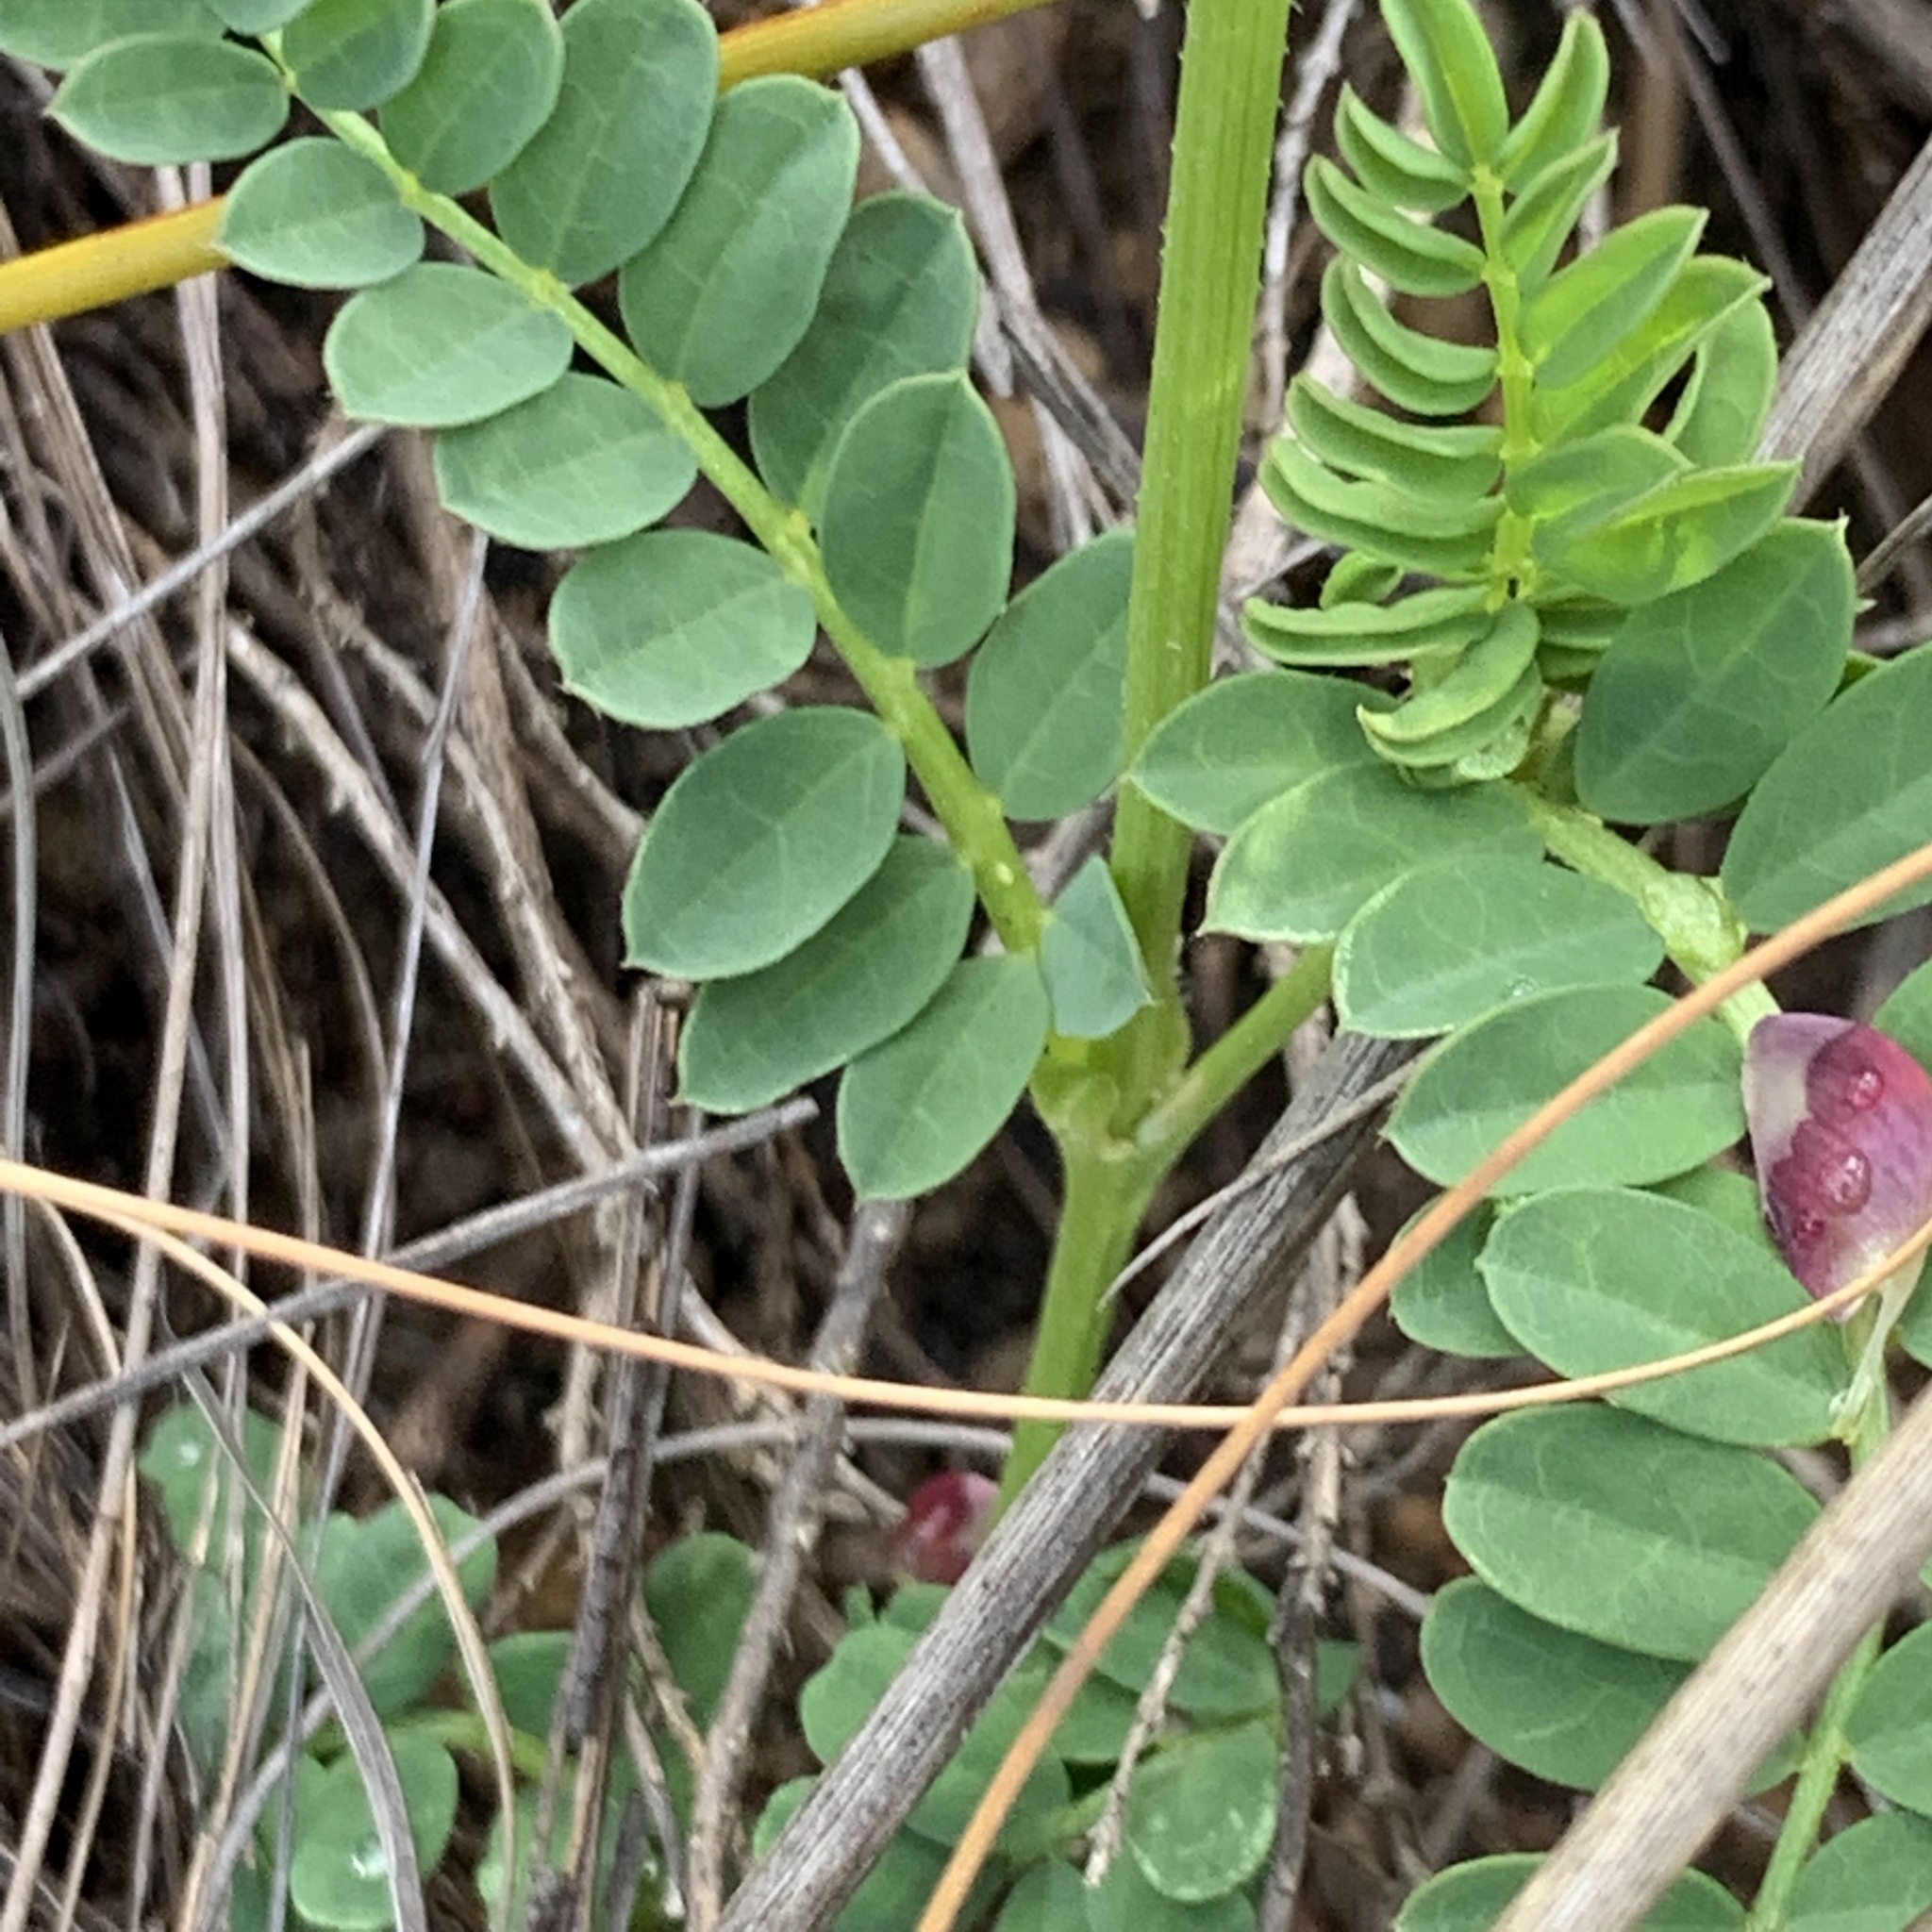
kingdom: Plantae
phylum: Tracheophyta
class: Magnoliopsida
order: Fabales
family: Fabaceae
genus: Lessertia
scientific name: Lessertia capensis
